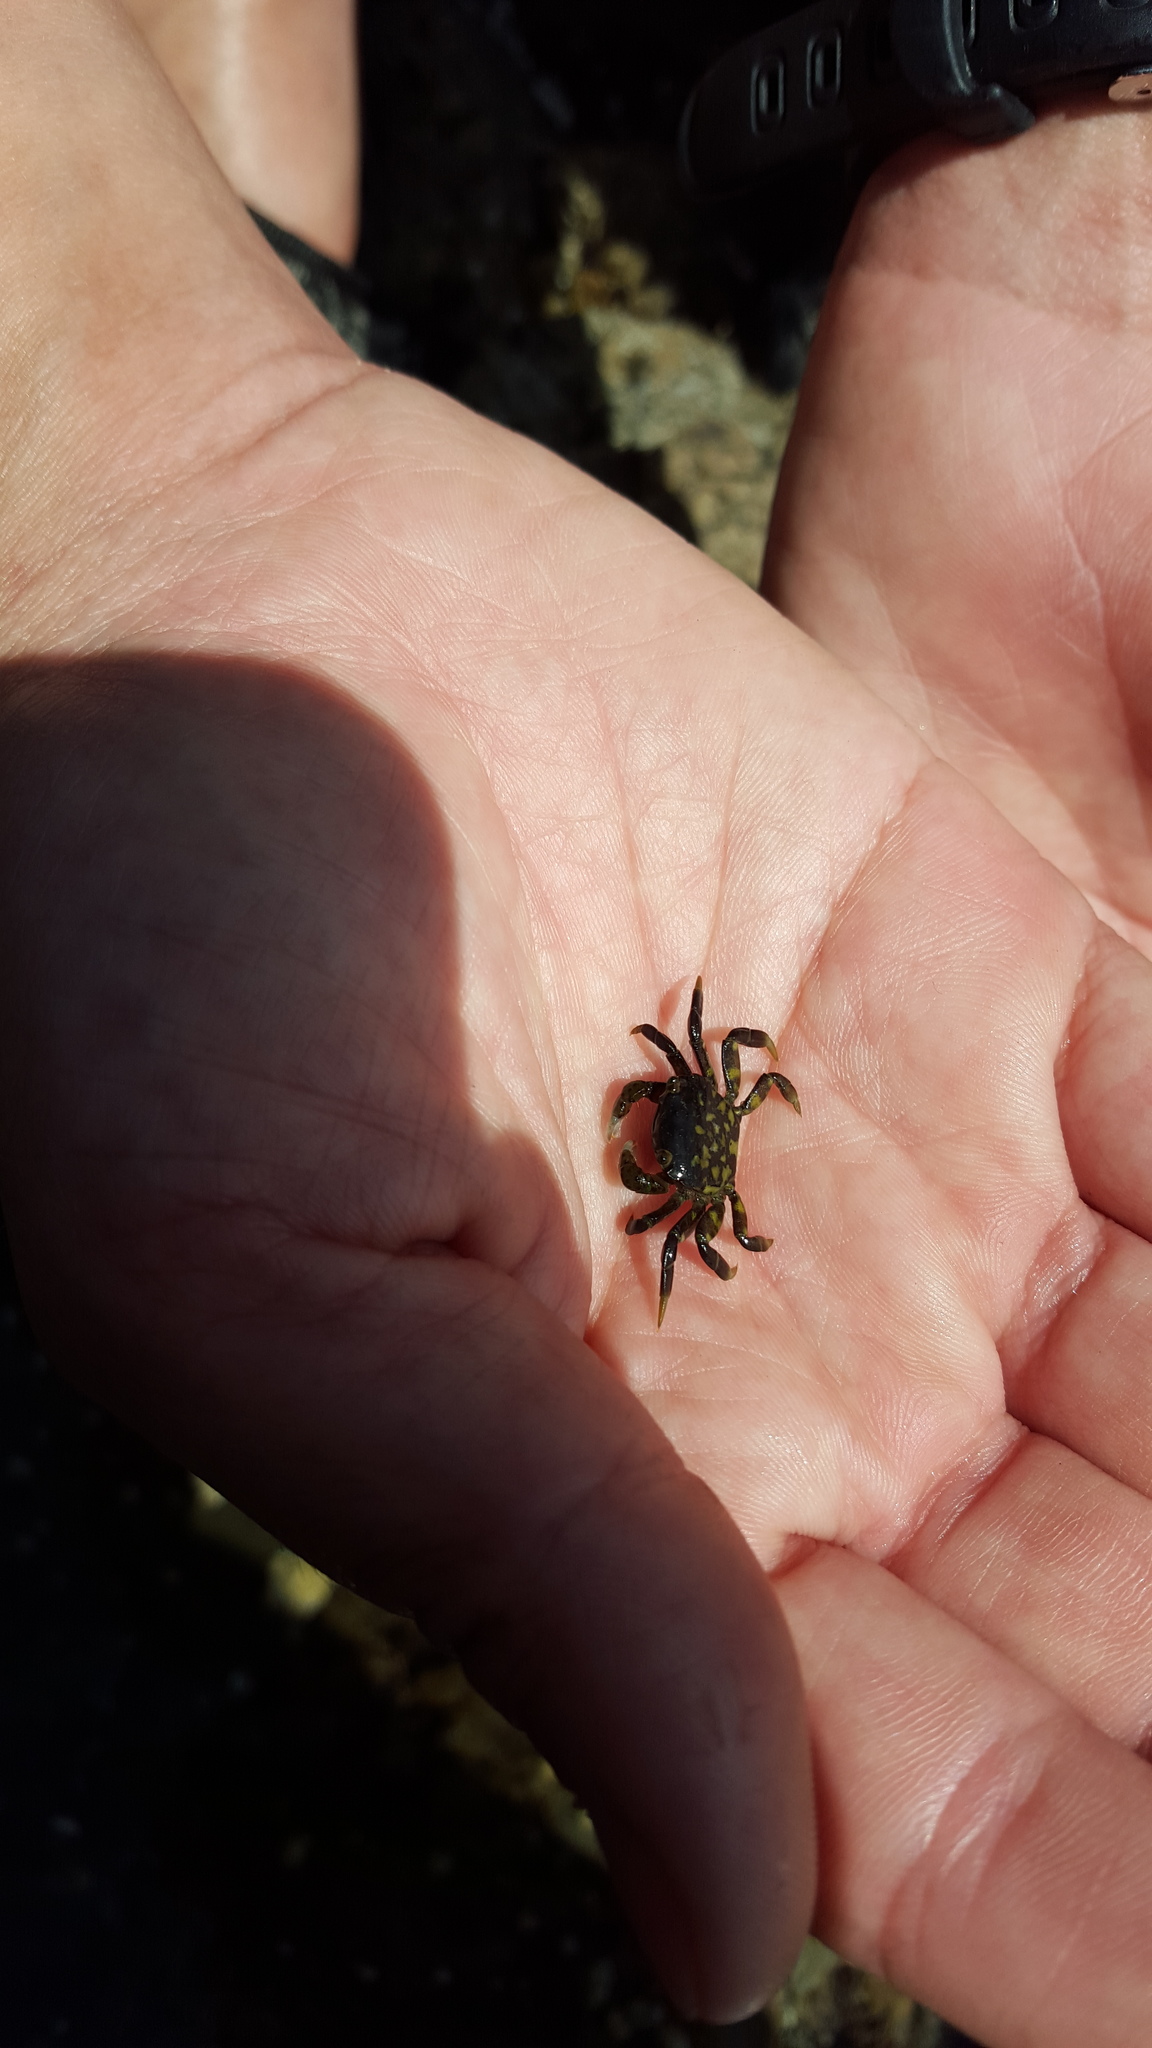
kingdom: Animalia
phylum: Arthropoda
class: Malacostraca
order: Decapoda
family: Varunidae
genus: Hemigrapsus
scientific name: Hemigrapsus nudus
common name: Purple shore crab
